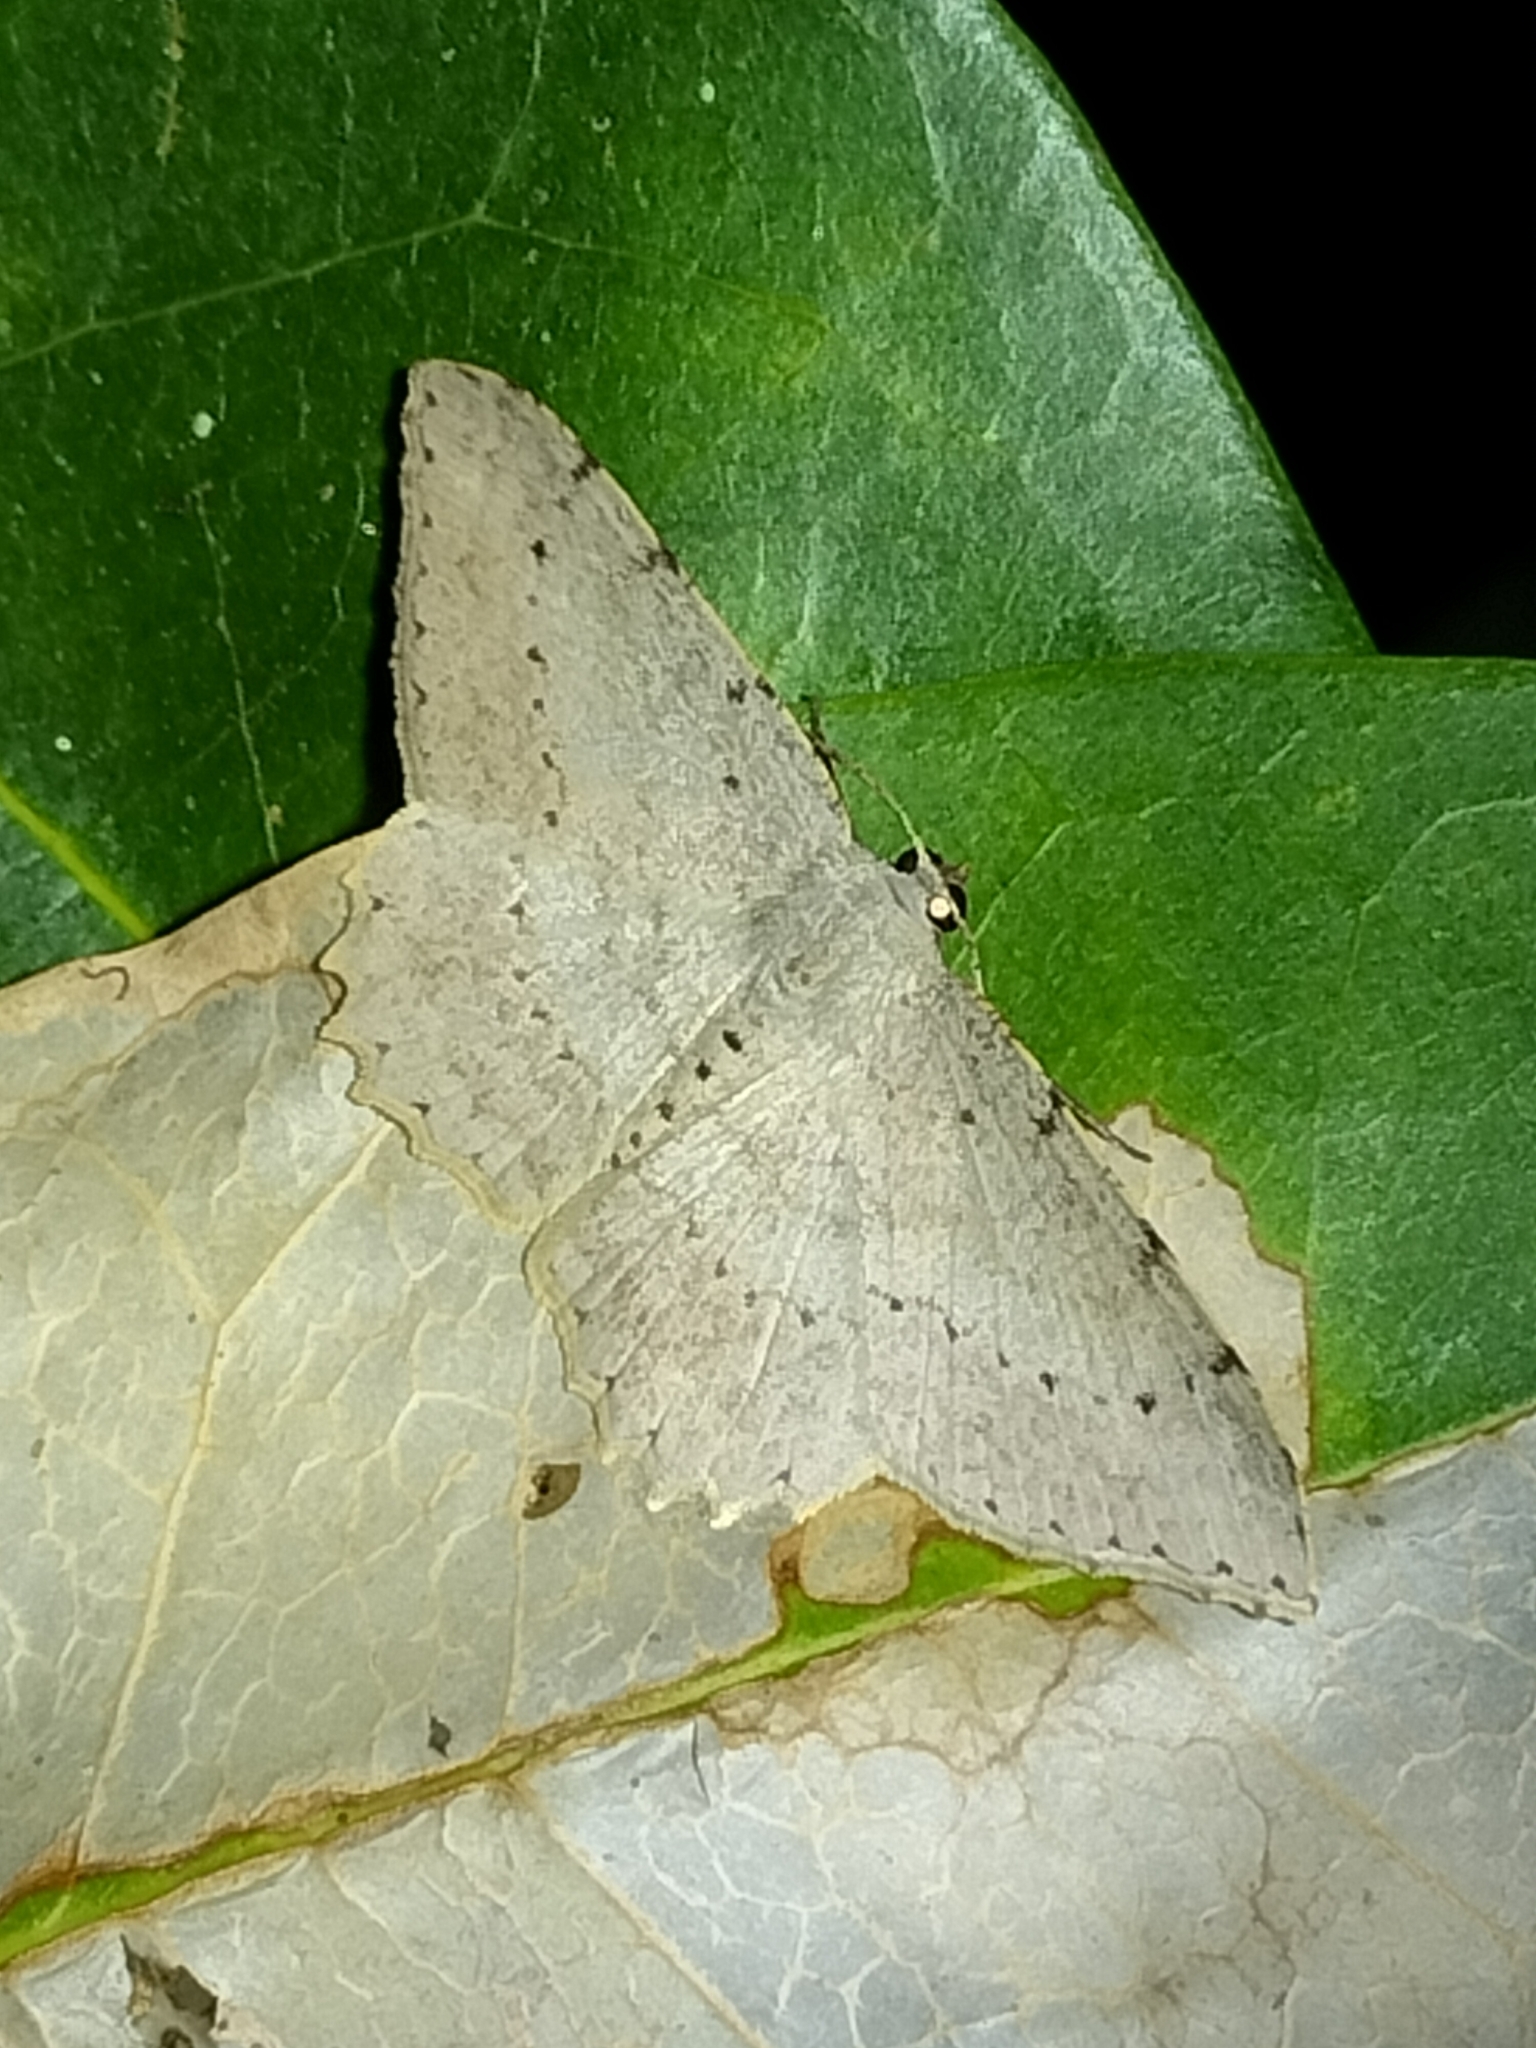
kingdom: Animalia
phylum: Arthropoda
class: Insecta
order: Lepidoptera
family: Geometridae
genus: Luxiaria
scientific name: Luxiaria ochrophara
